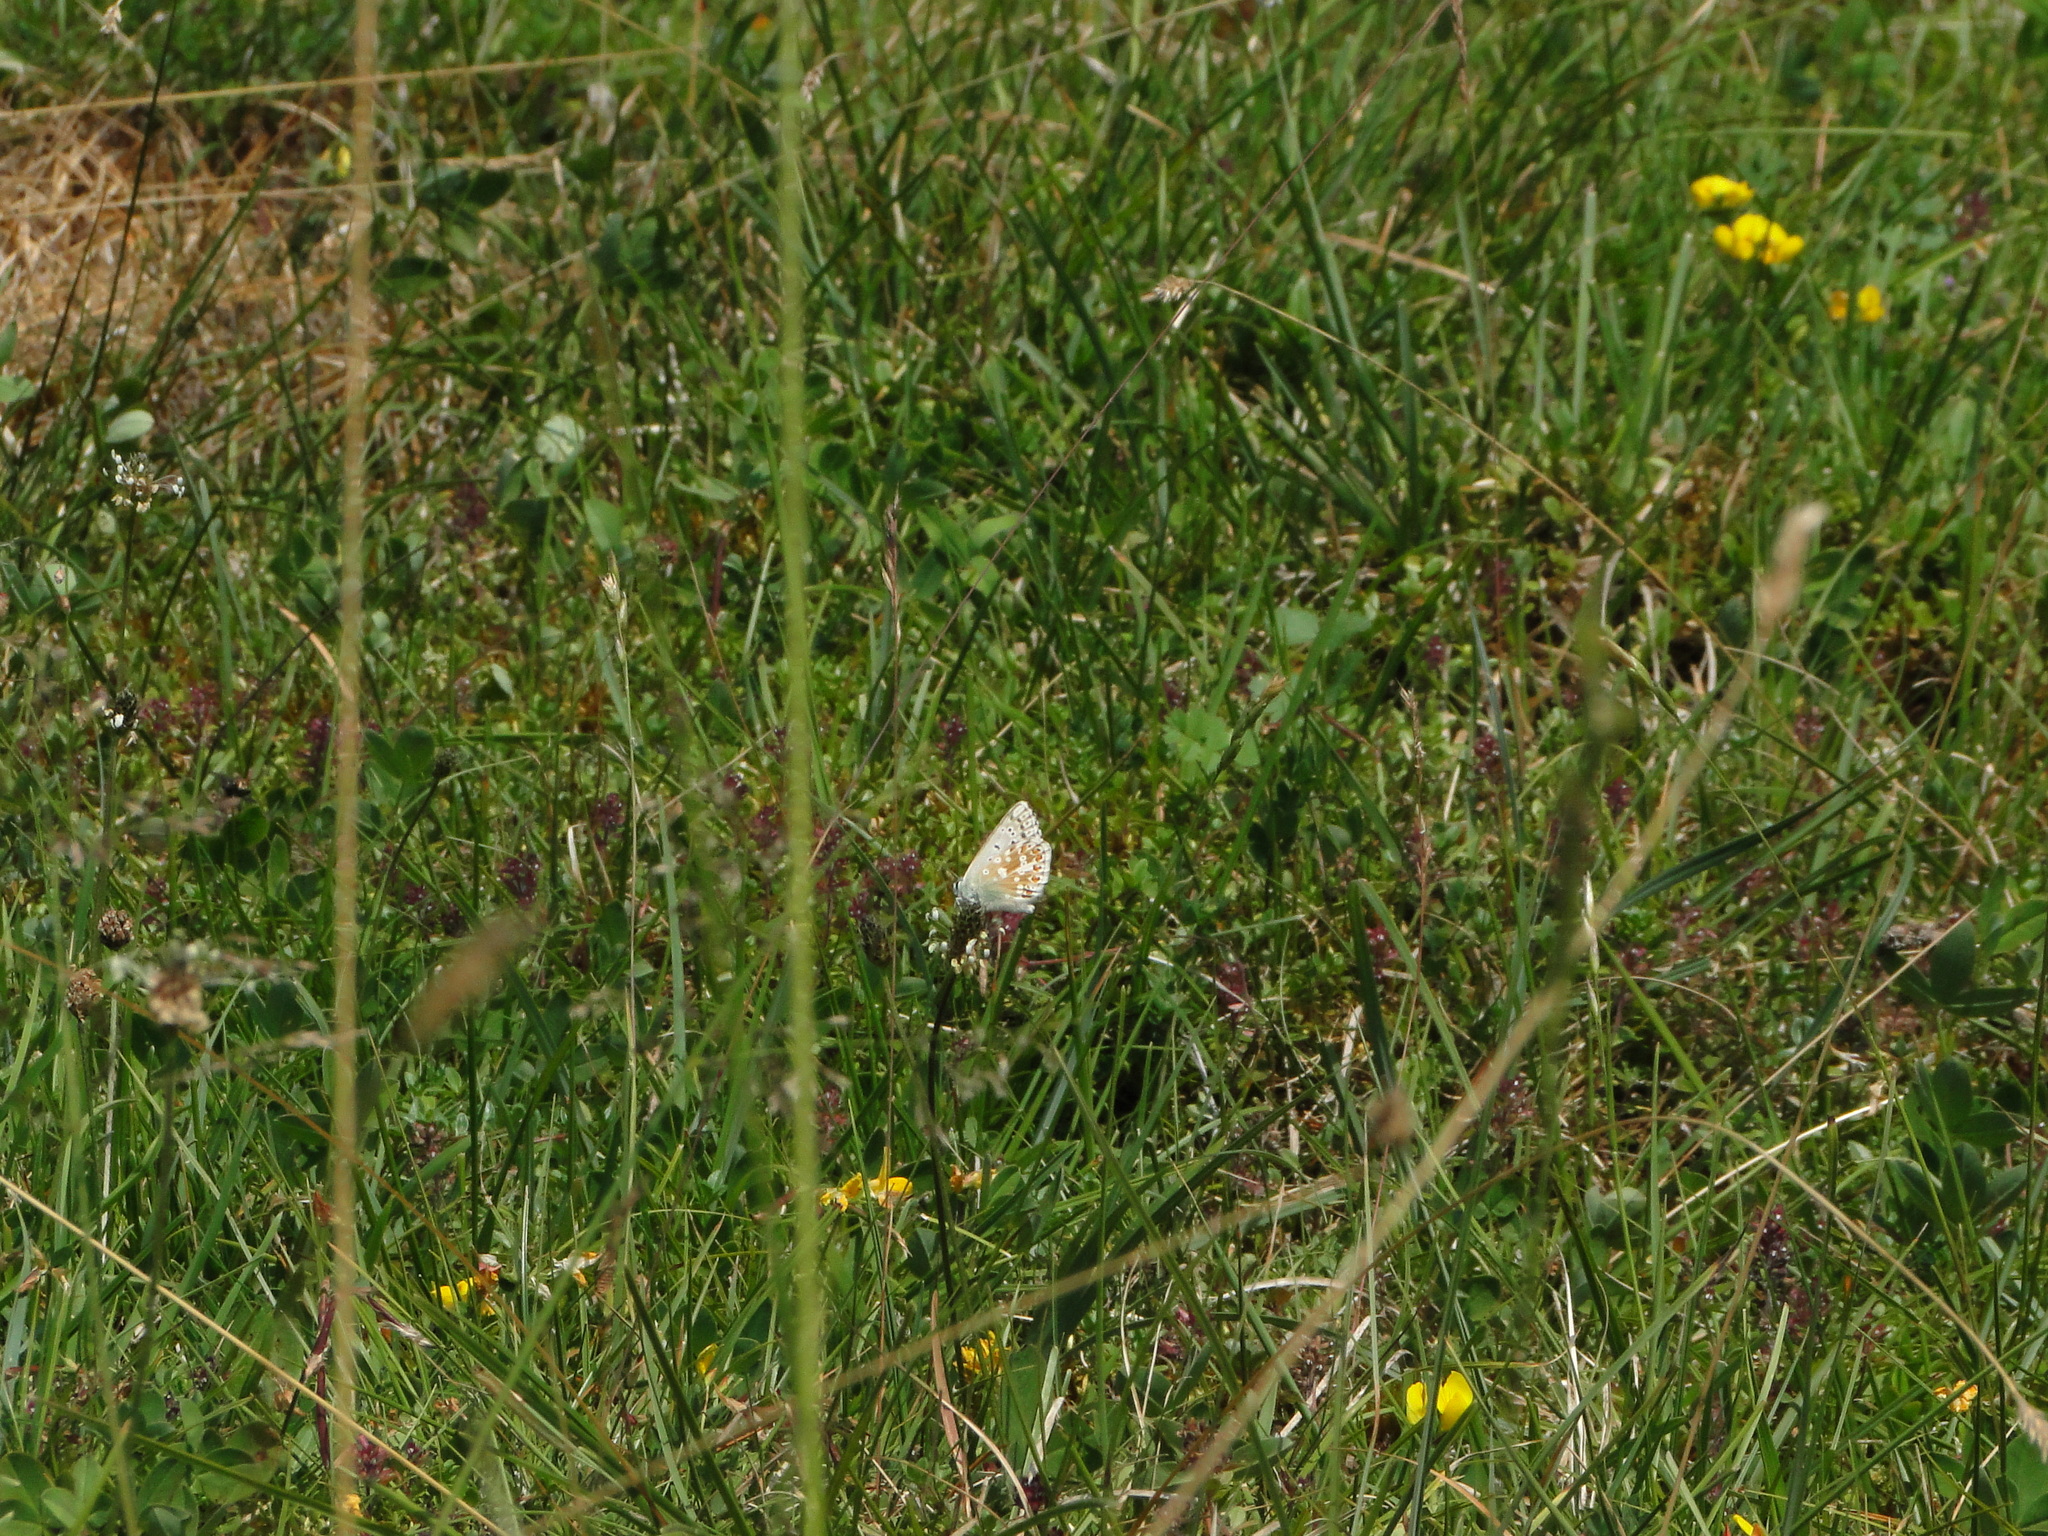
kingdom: Animalia
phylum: Arthropoda
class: Insecta
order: Lepidoptera
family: Lycaenidae
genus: Lysandra
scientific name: Lysandra coridon
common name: Chalkhill blue
